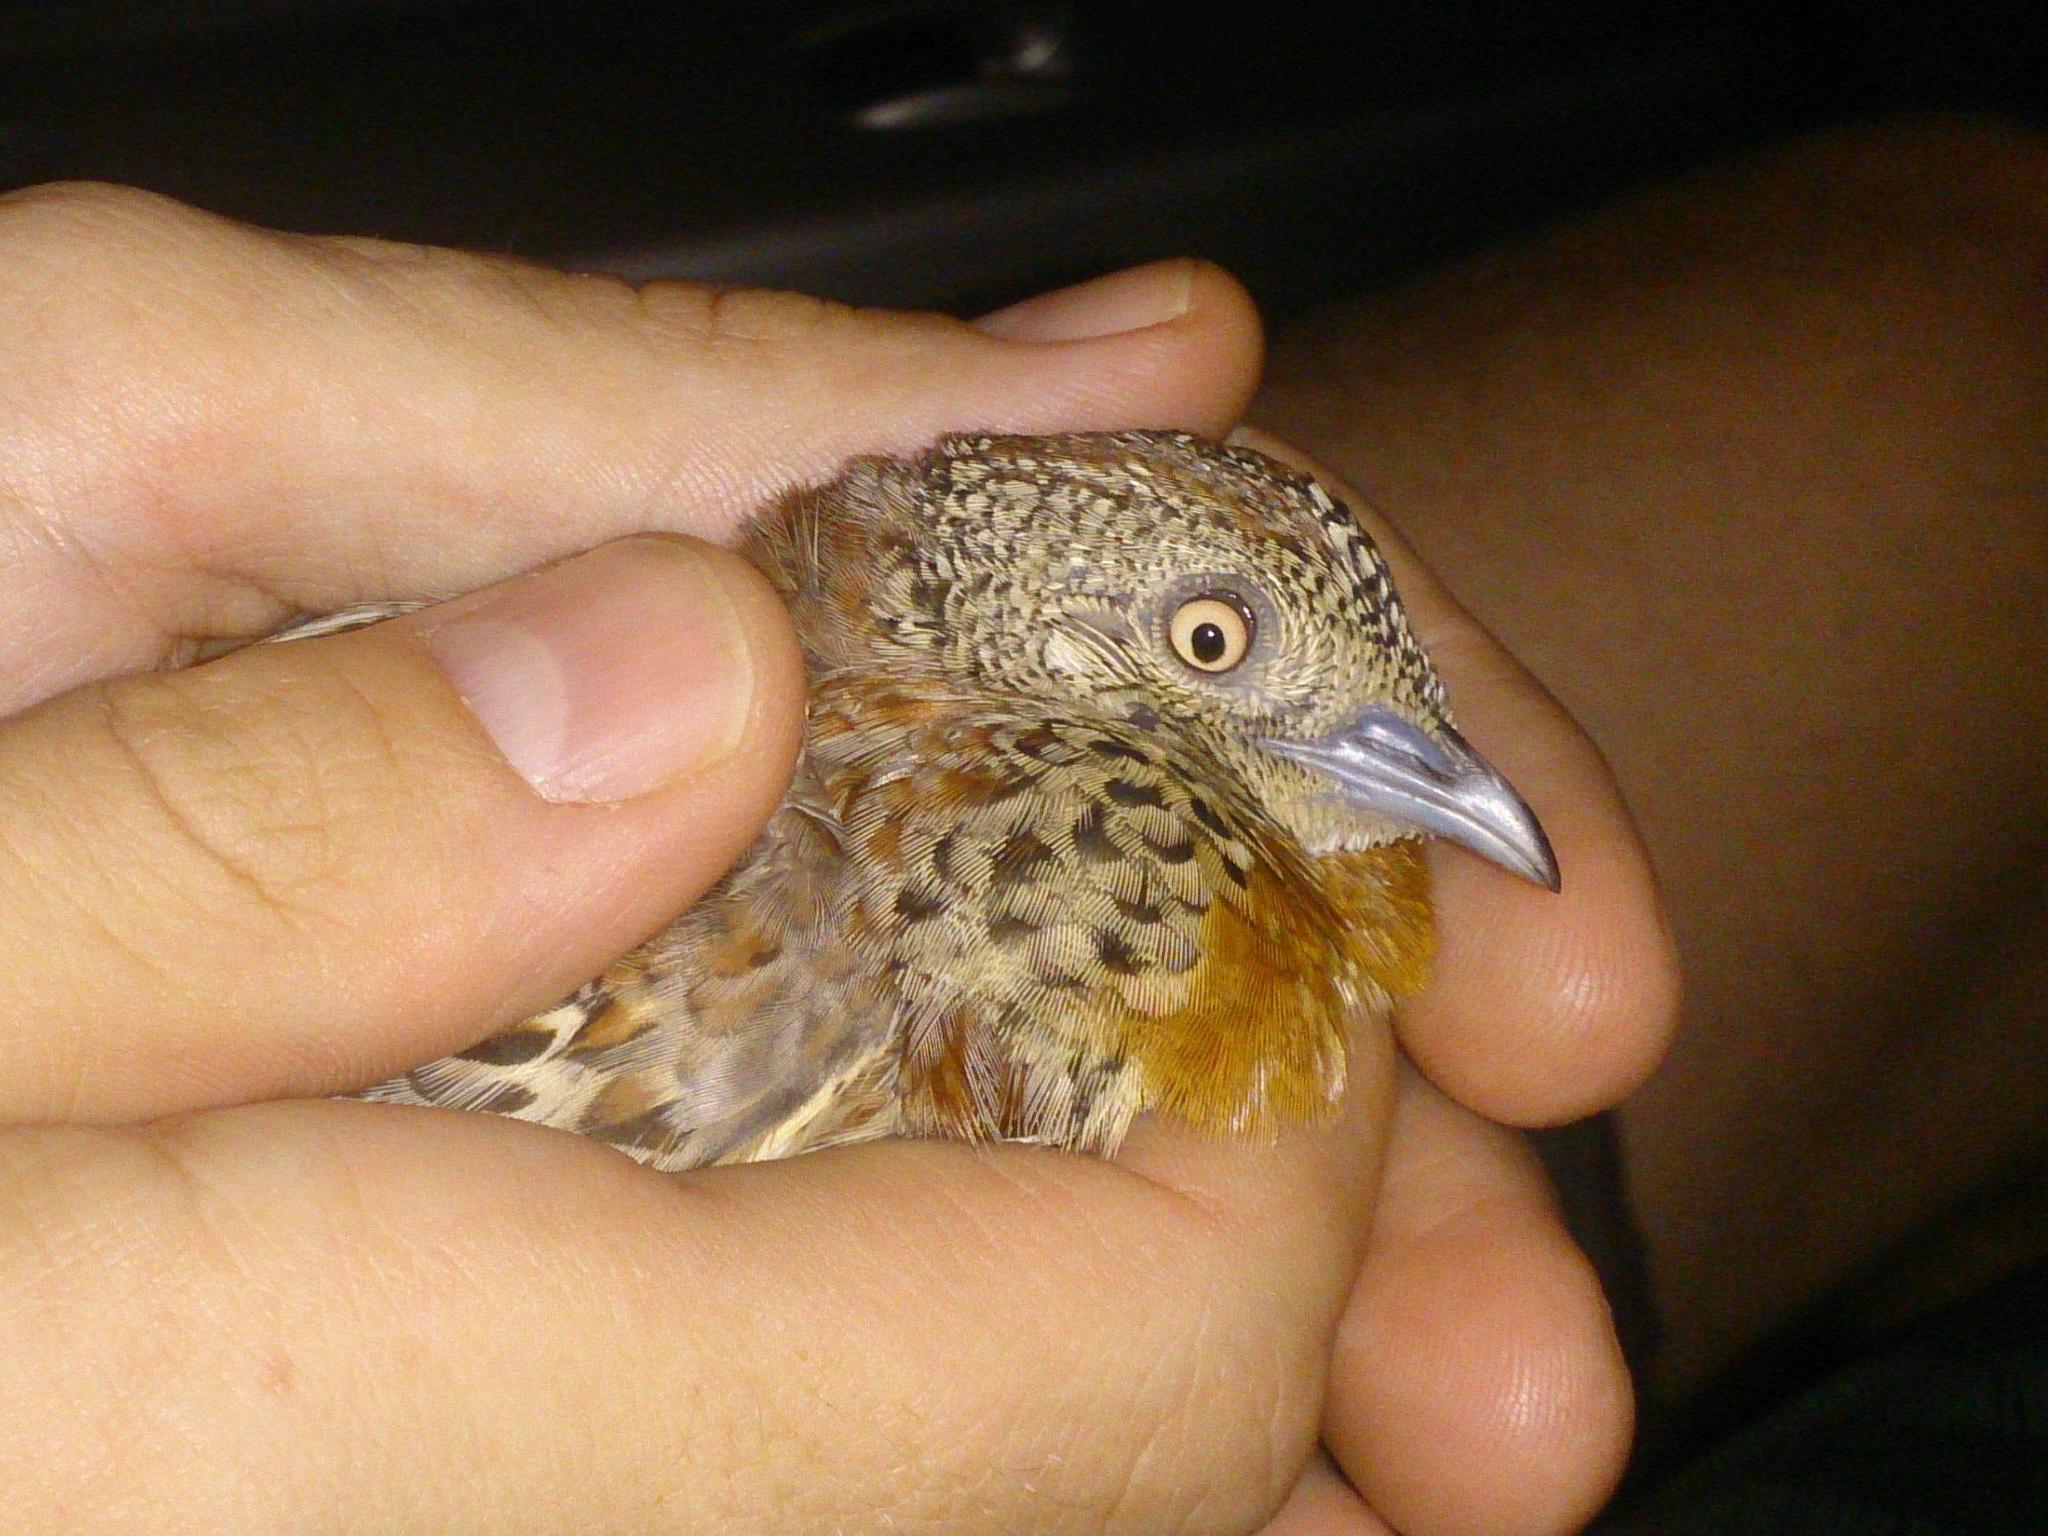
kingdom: Animalia
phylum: Chordata
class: Aves
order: Charadriiformes
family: Turnicidae
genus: Turnix
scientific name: Turnix sylvaticus
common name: Common buttonquail
